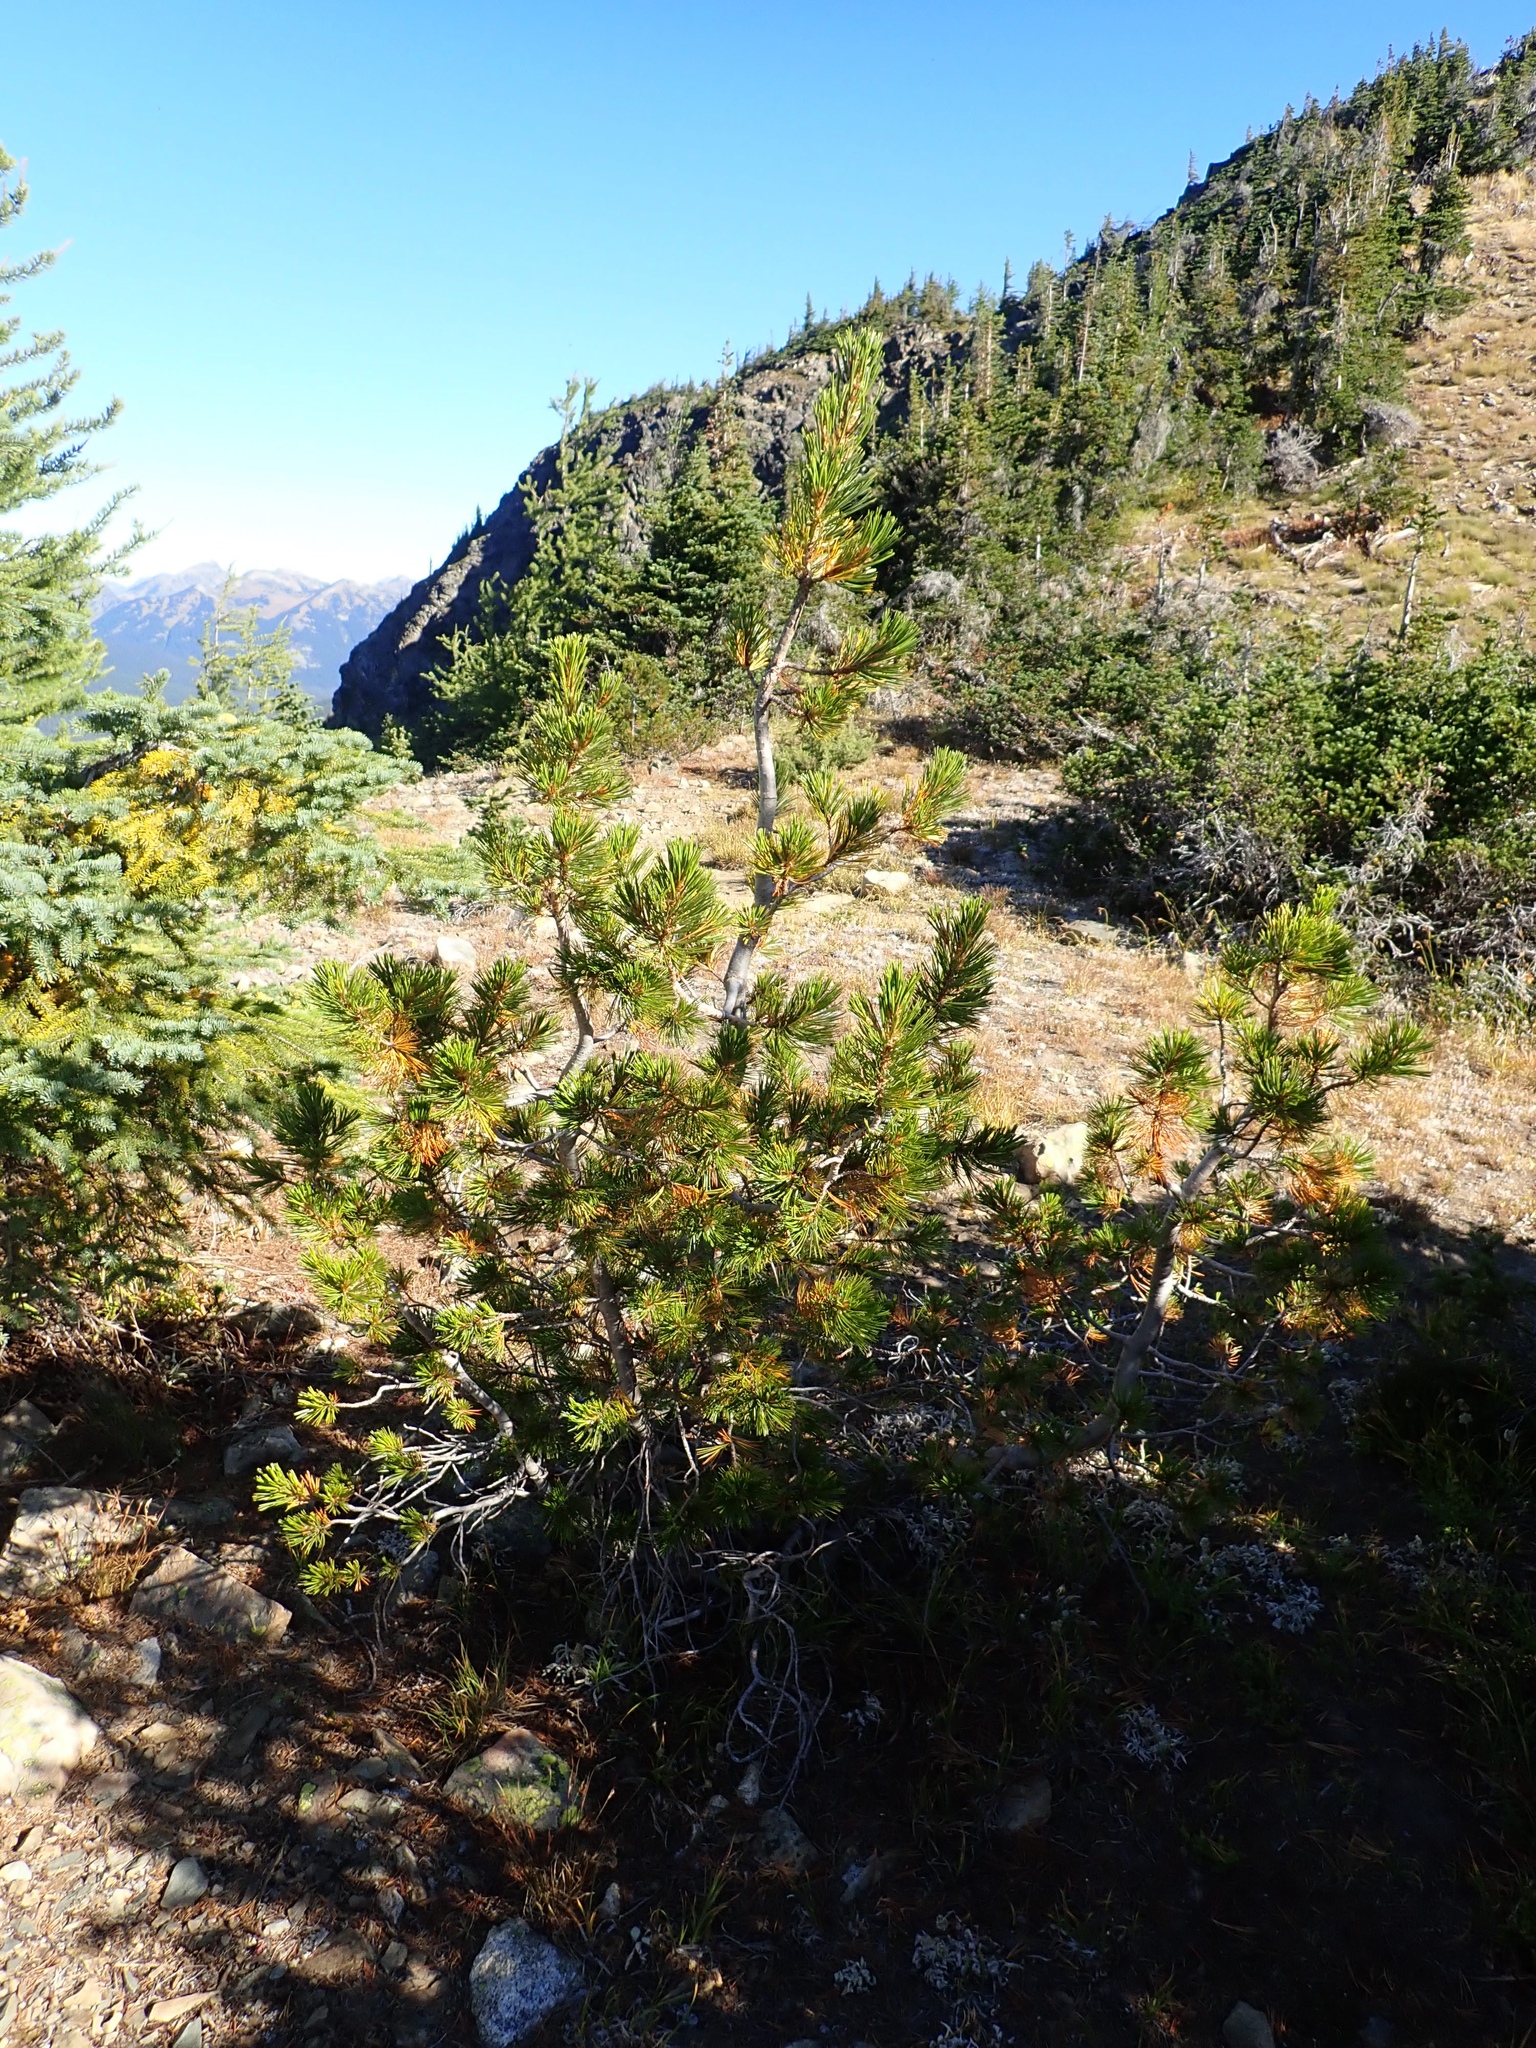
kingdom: Plantae
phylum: Tracheophyta
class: Pinopsida
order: Pinales
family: Pinaceae
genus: Pinus
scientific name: Pinus albicaulis
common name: Whitebark pine
